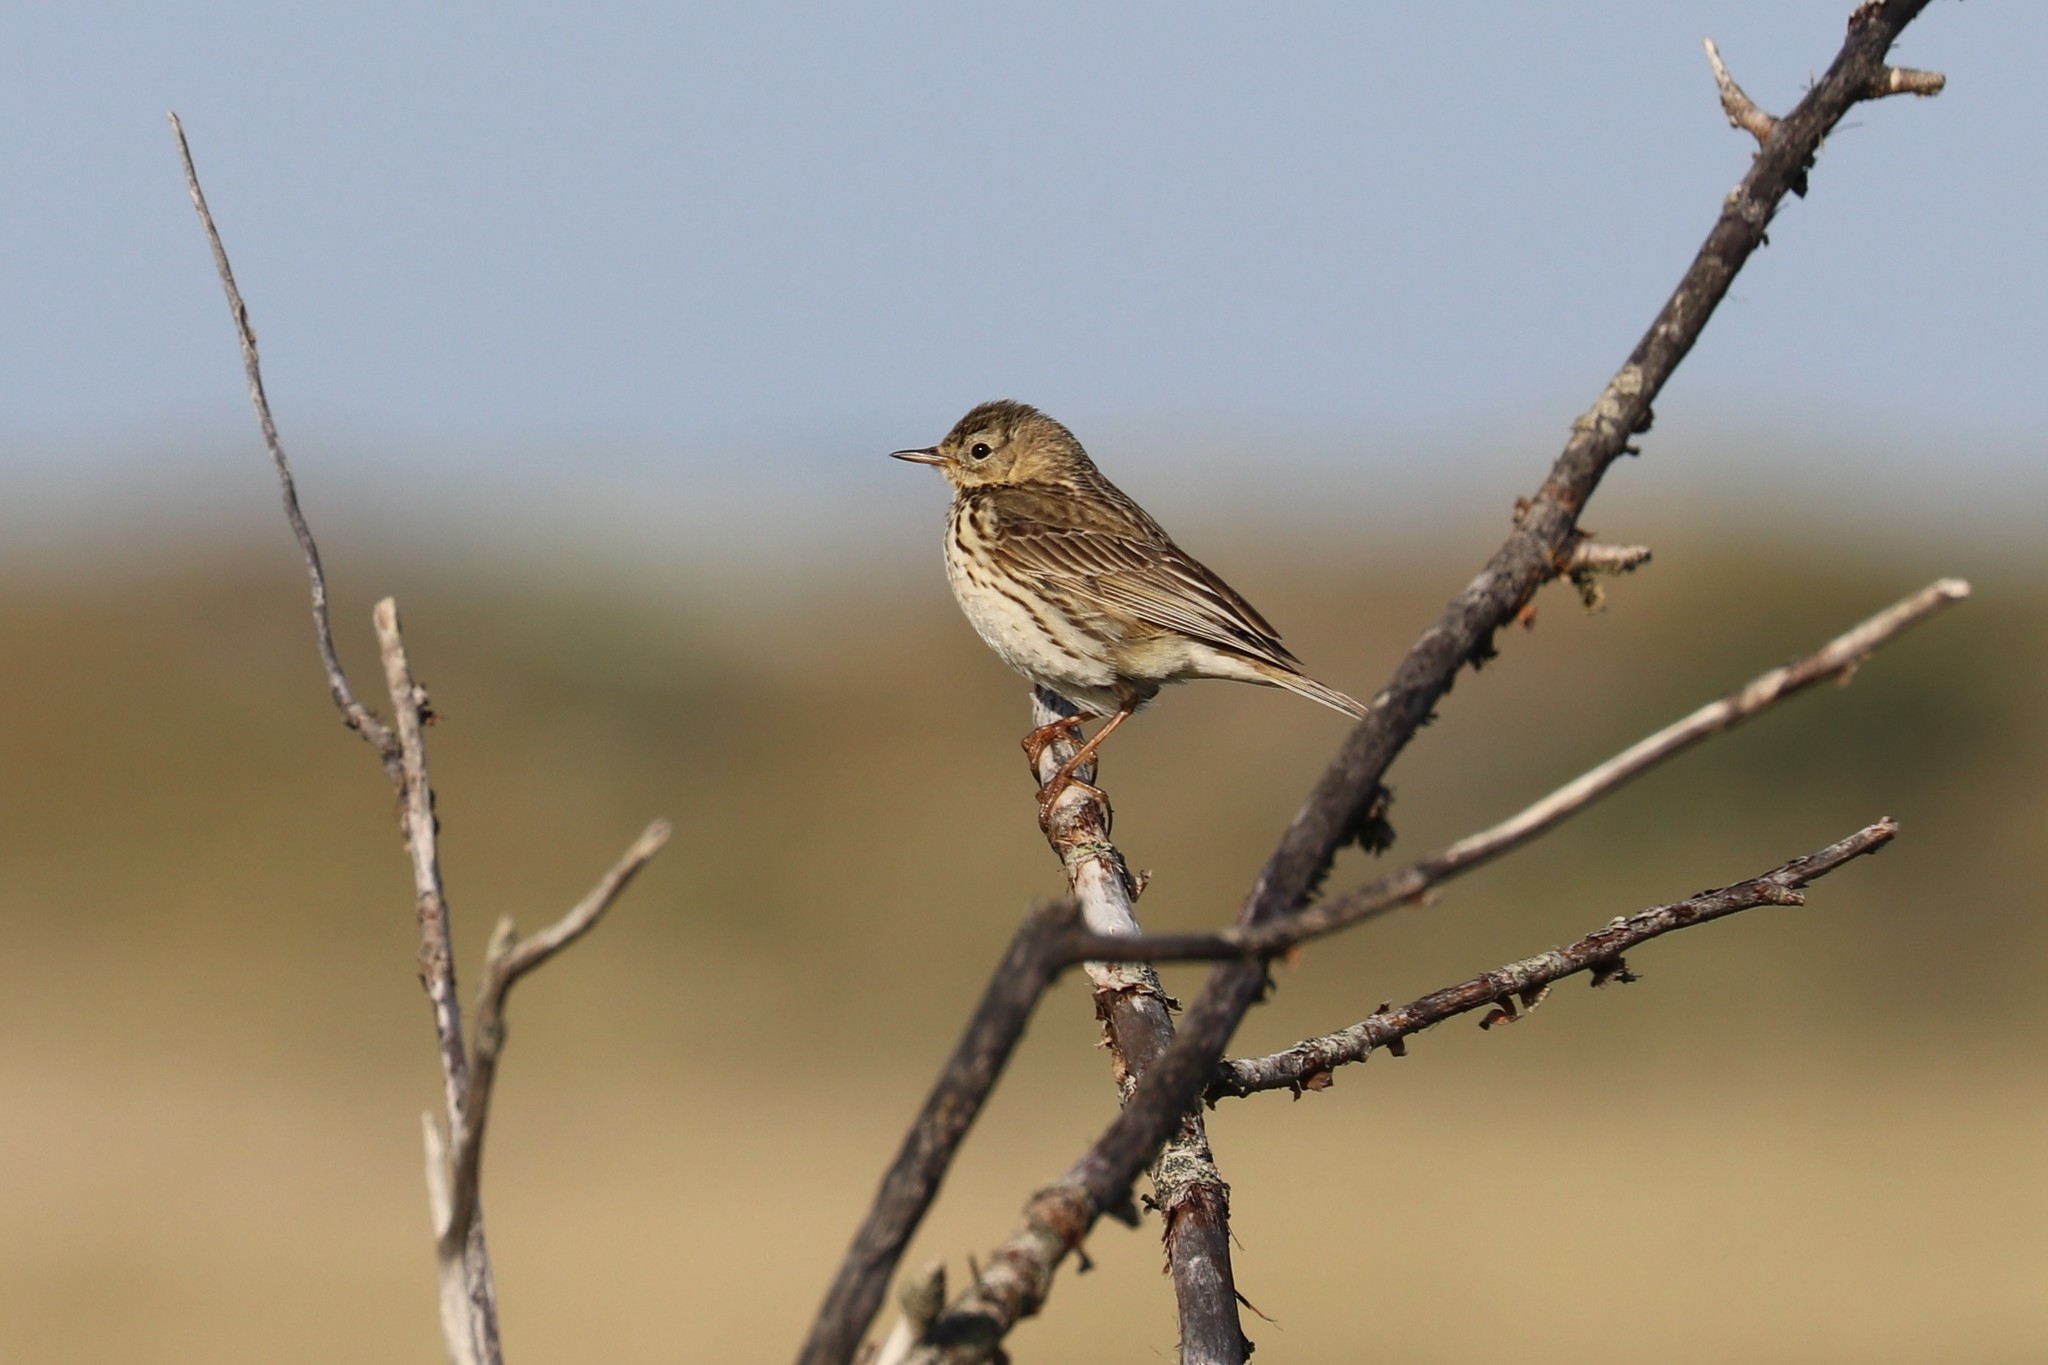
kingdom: Animalia
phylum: Chordata
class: Aves
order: Passeriformes
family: Motacillidae
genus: Anthus
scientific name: Anthus pratensis
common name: Meadow pipit
